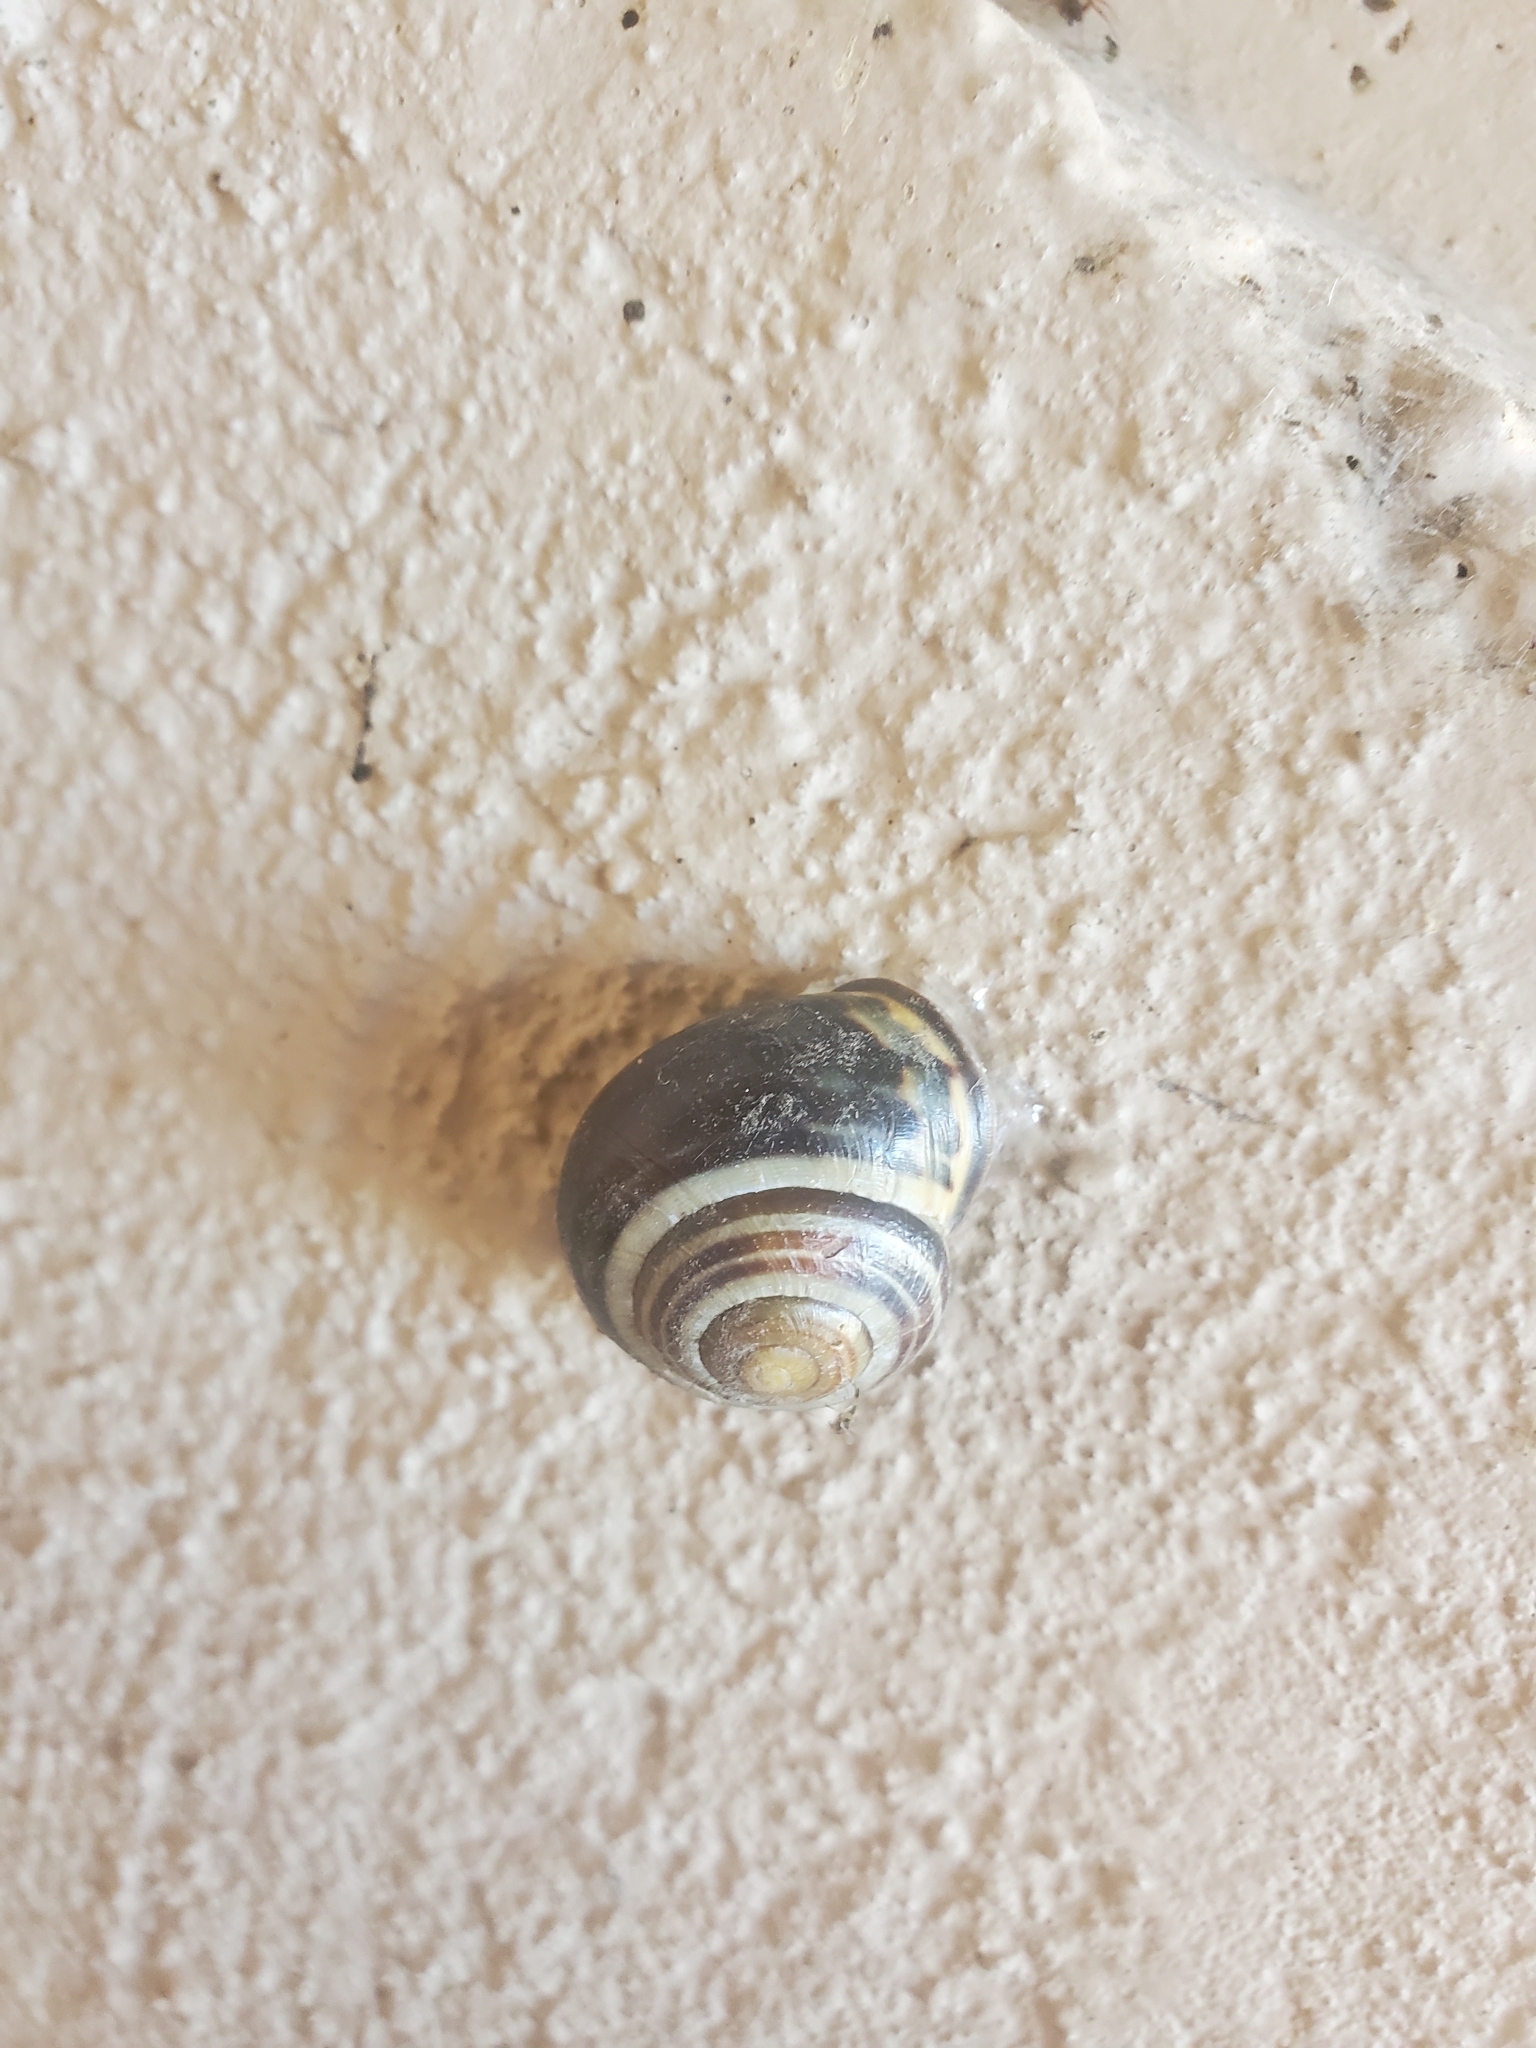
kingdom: Animalia
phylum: Mollusca
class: Gastropoda
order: Stylommatophora
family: Helicidae
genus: Cepaea
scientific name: Cepaea nemoralis
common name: Grovesnail
